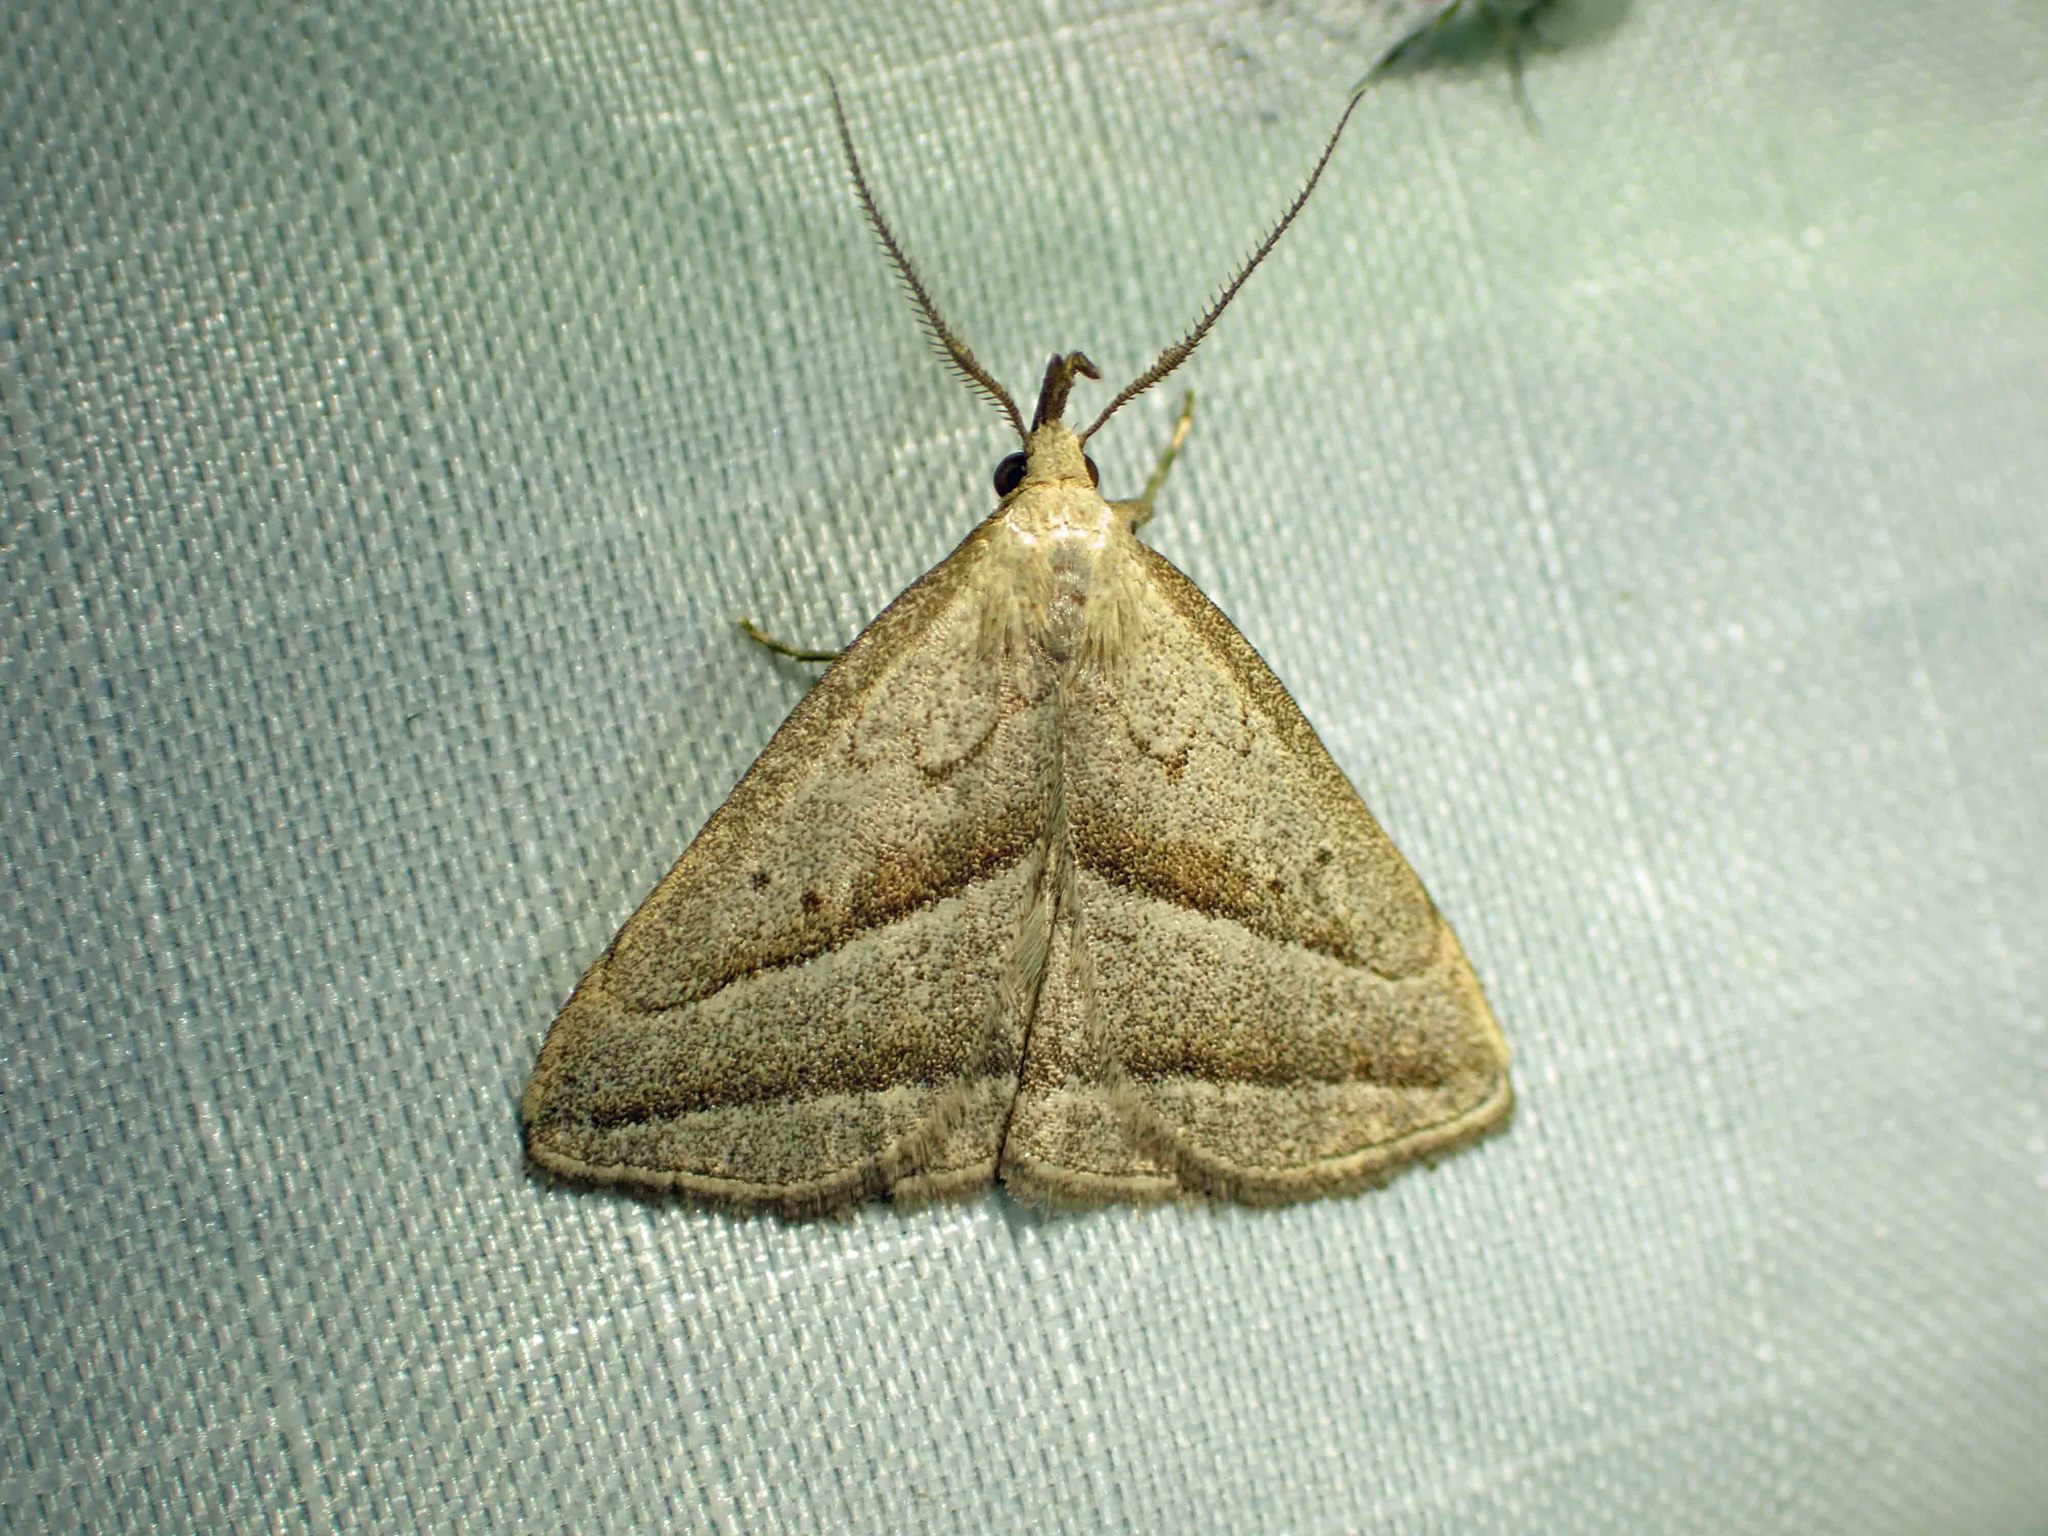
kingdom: Animalia
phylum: Arthropoda
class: Insecta
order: Lepidoptera
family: Erebidae
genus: Macrochilo
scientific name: Macrochilo absorptalis
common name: Slant-lined owlet
